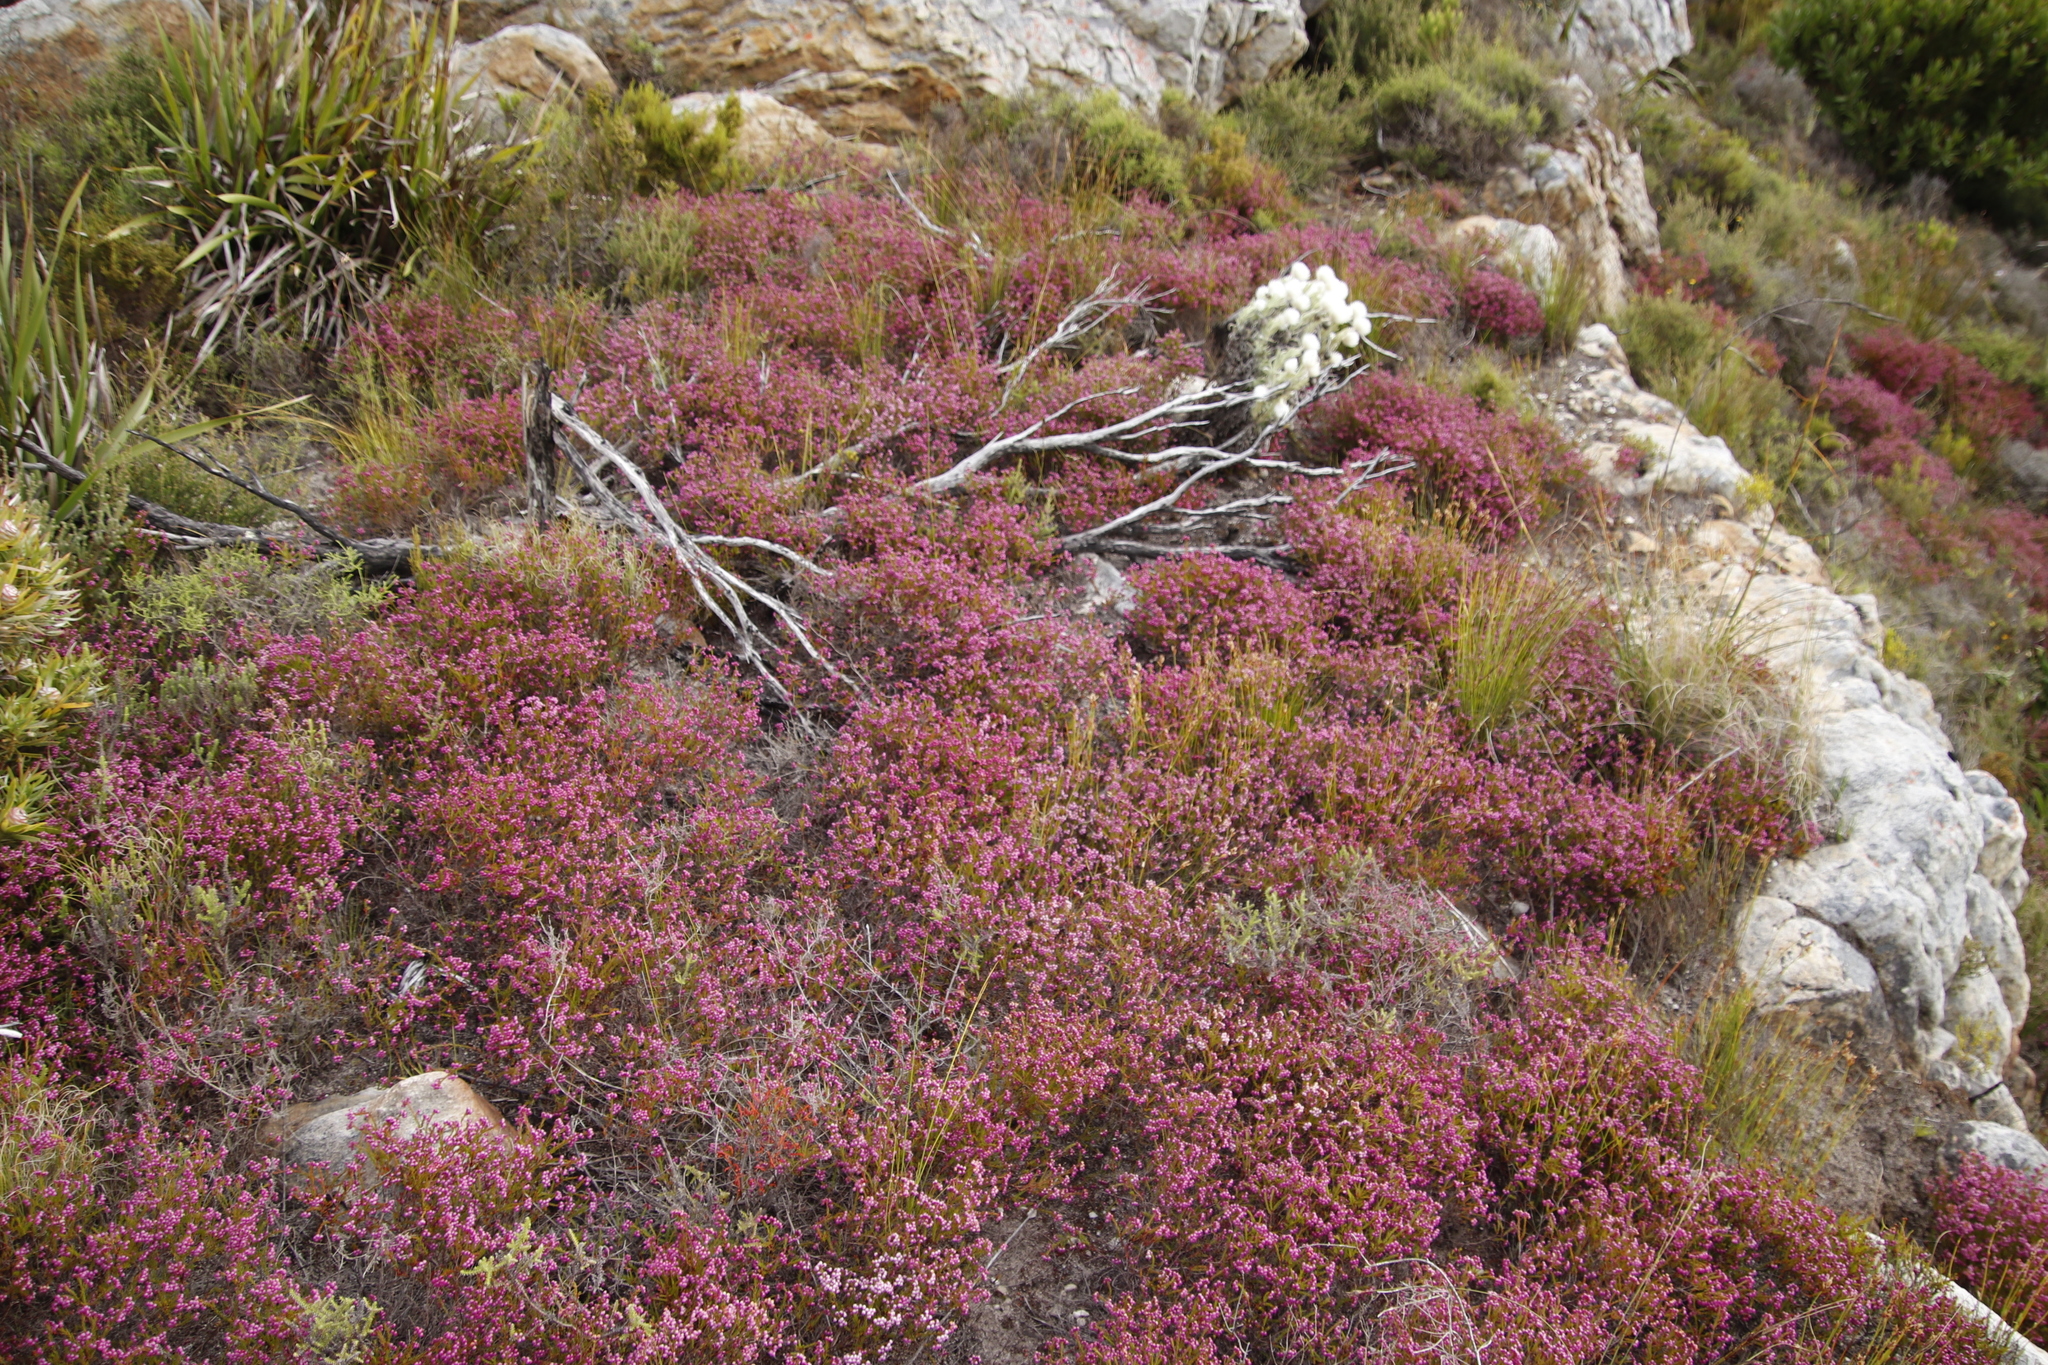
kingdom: Plantae
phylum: Tracheophyta
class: Magnoliopsida
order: Ericales
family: Ericaceae
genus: Erica
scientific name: Erica multumbellifera
